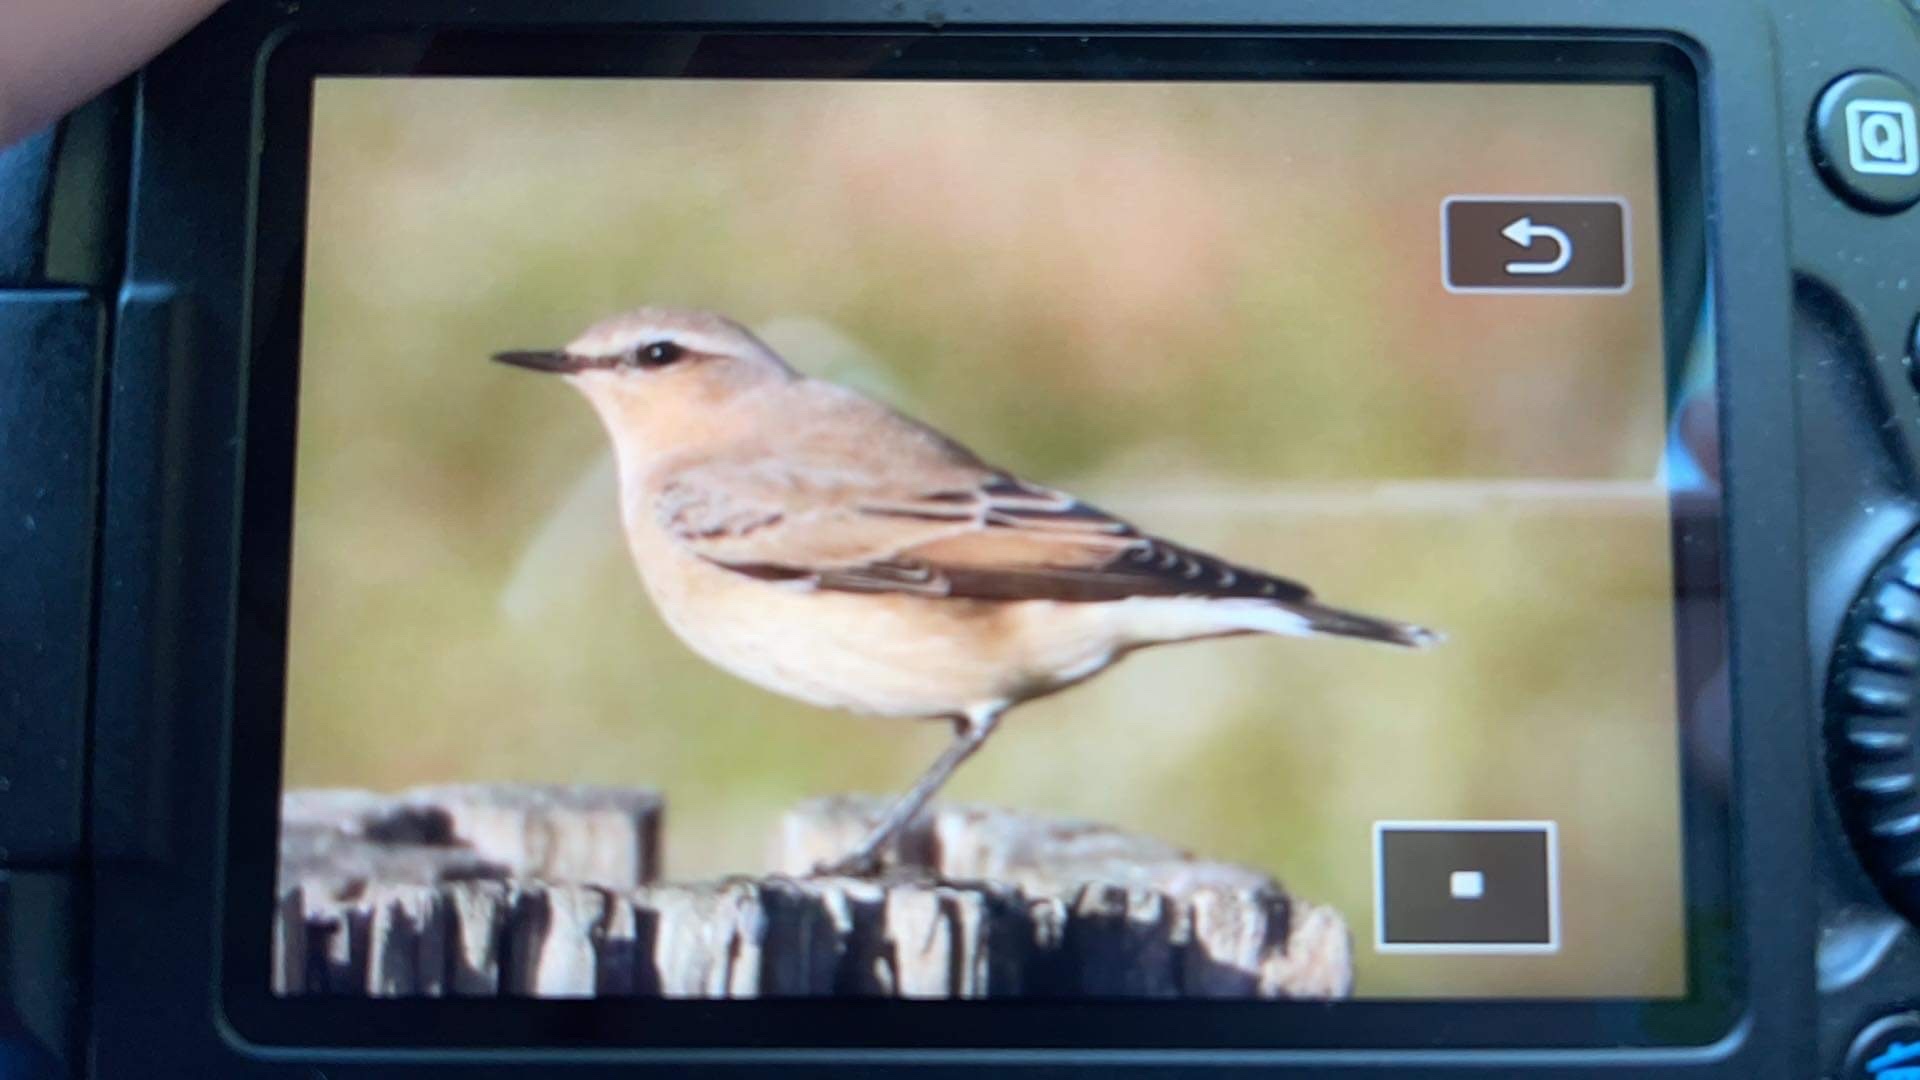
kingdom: Animalia
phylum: Chordata
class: Aves
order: Passeriformes
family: Muscicapidae
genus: Oenanthe
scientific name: Oenanthe oenanthe
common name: Northern wheatear
